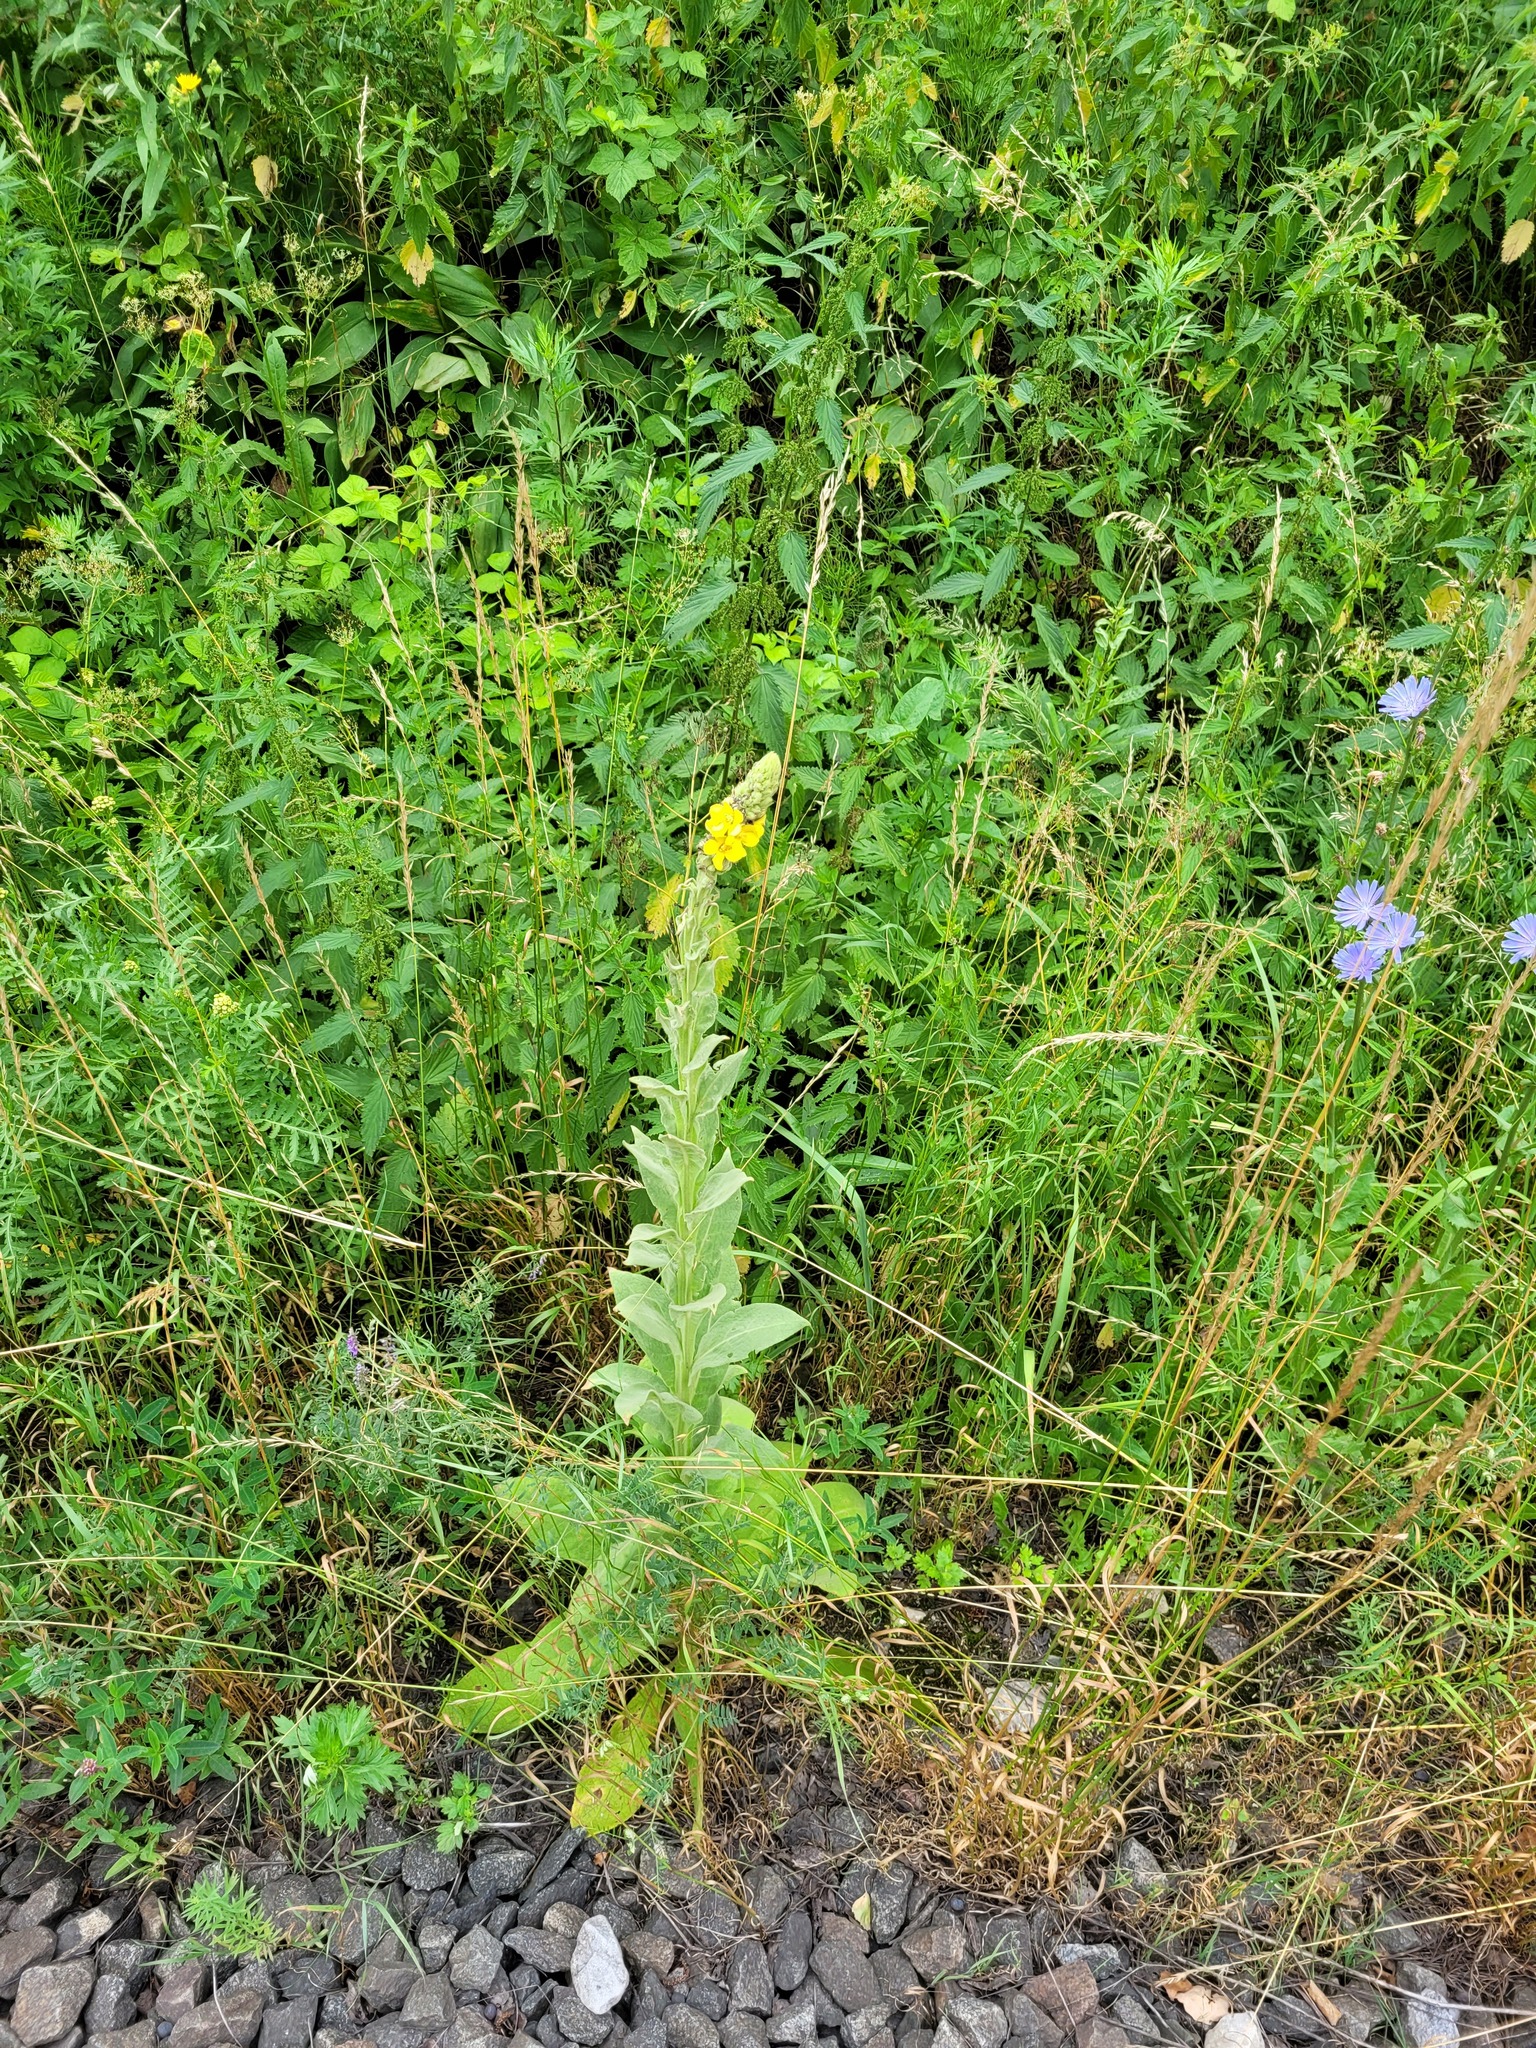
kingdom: Plantae
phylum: Tracheophyta
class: Magnoliopsida
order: Lamiales
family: Scrophulariaceae
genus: Verbascum
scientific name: Verbascum thapsus
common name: Common mullein
